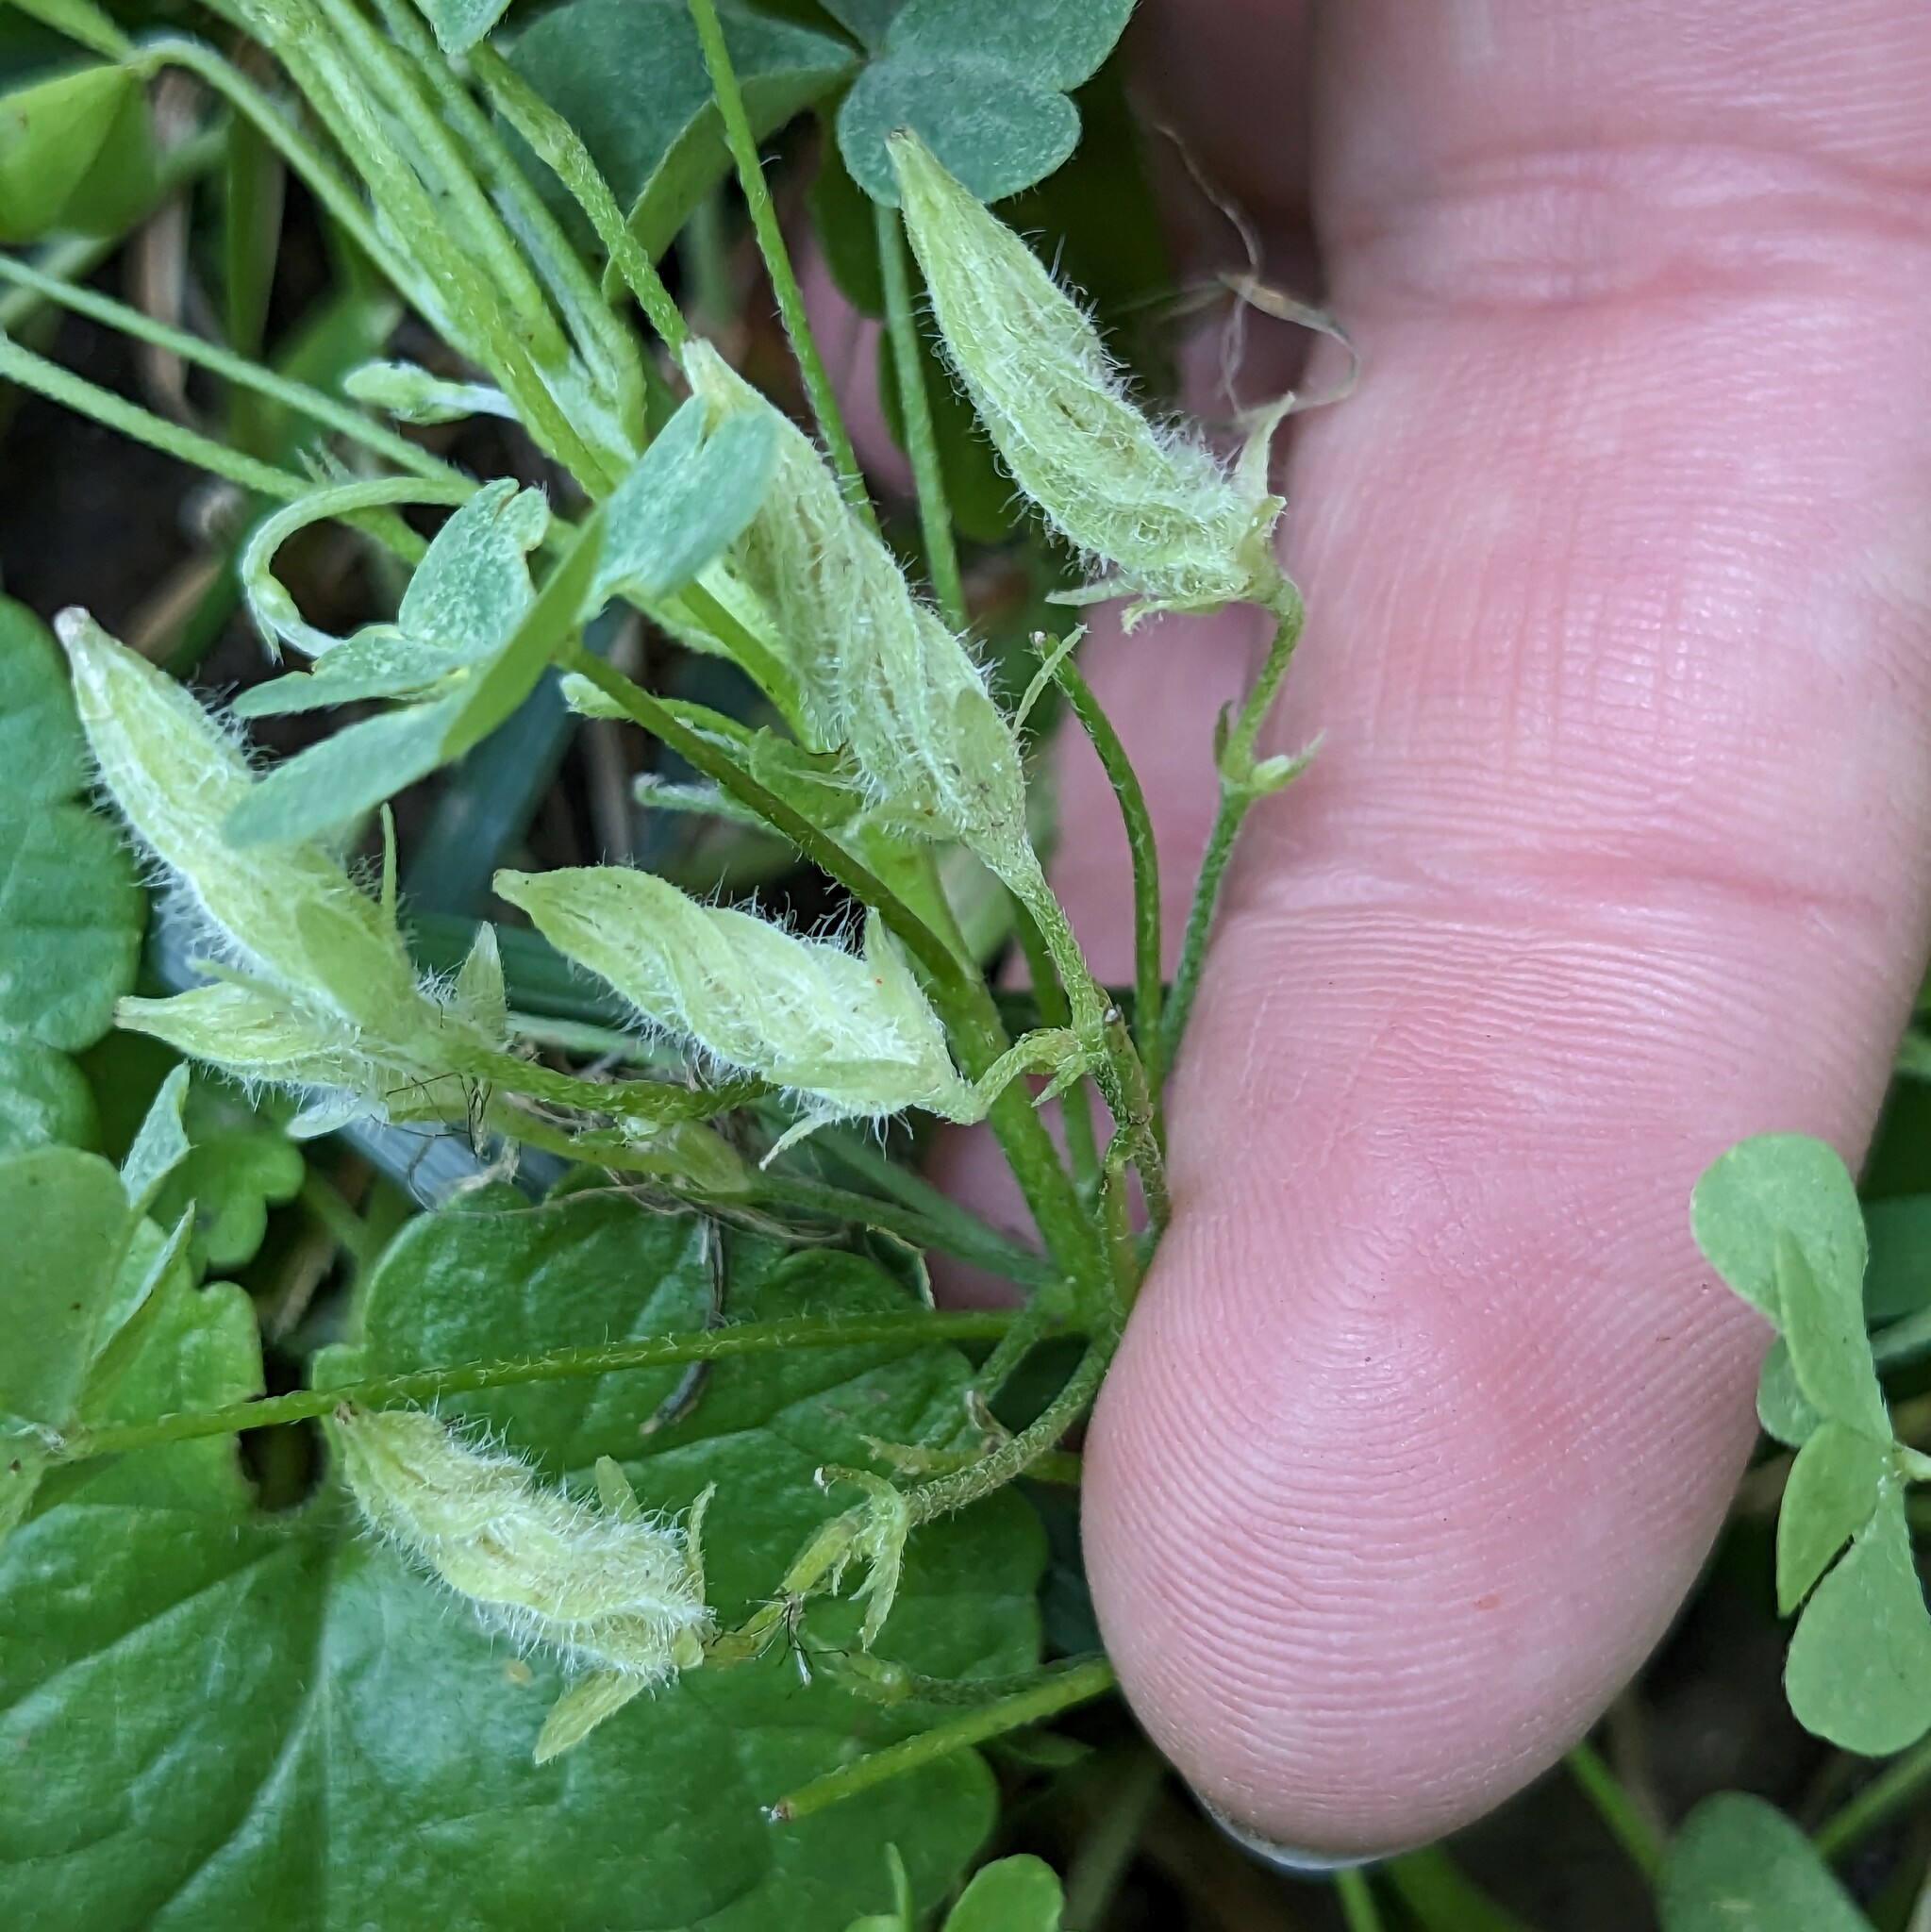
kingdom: Plantae
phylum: Tracheophyta
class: Magnoliopsida
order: Oxalidales
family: Oxalidaceae
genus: Oxalis
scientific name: Oxalis dillenii
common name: Sussex yellow-sorrel
